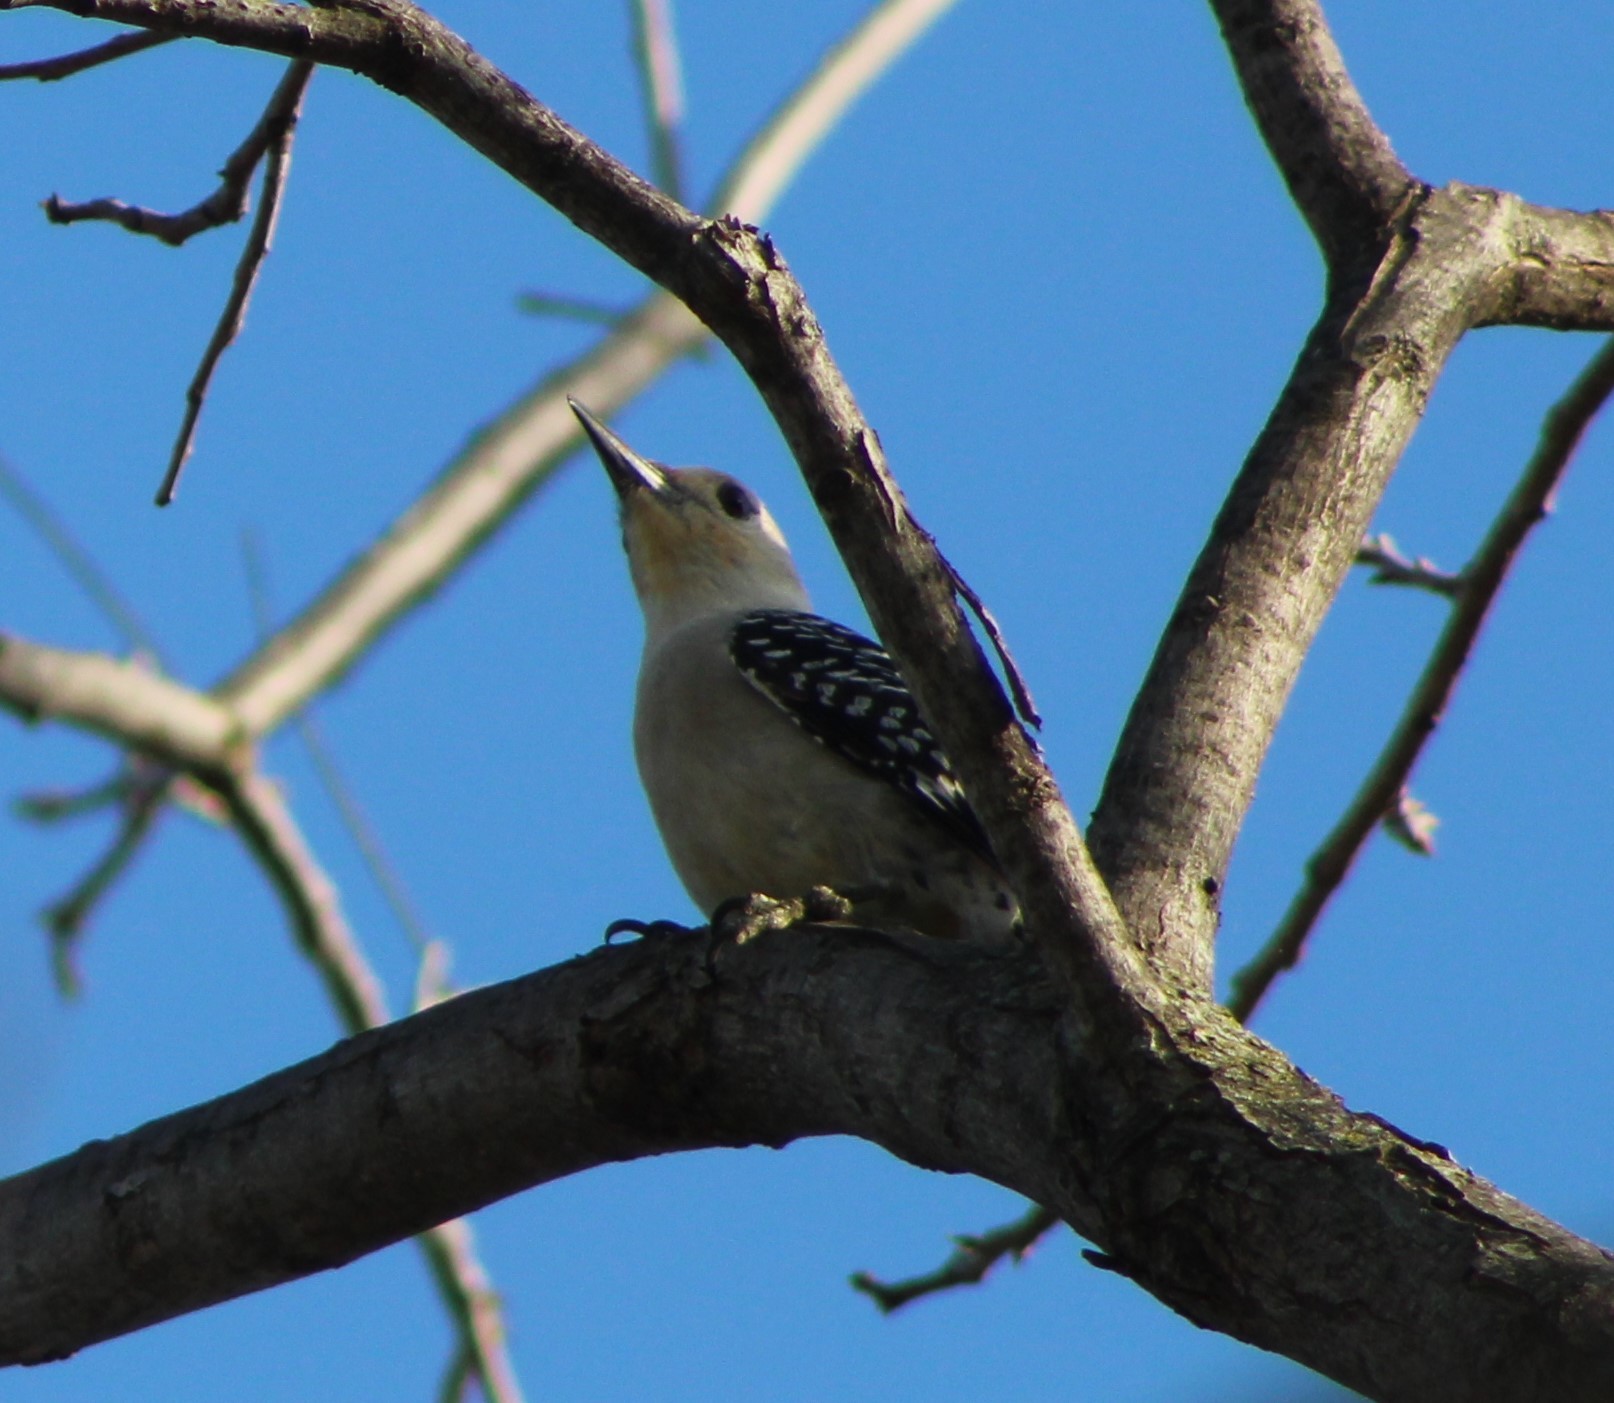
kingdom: Animalia
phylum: Chordata
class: Aves
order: Piciformes
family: Picidae
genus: Melanerpes
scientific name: Melanerpes carolinus
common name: Red-bellied woodpecker
